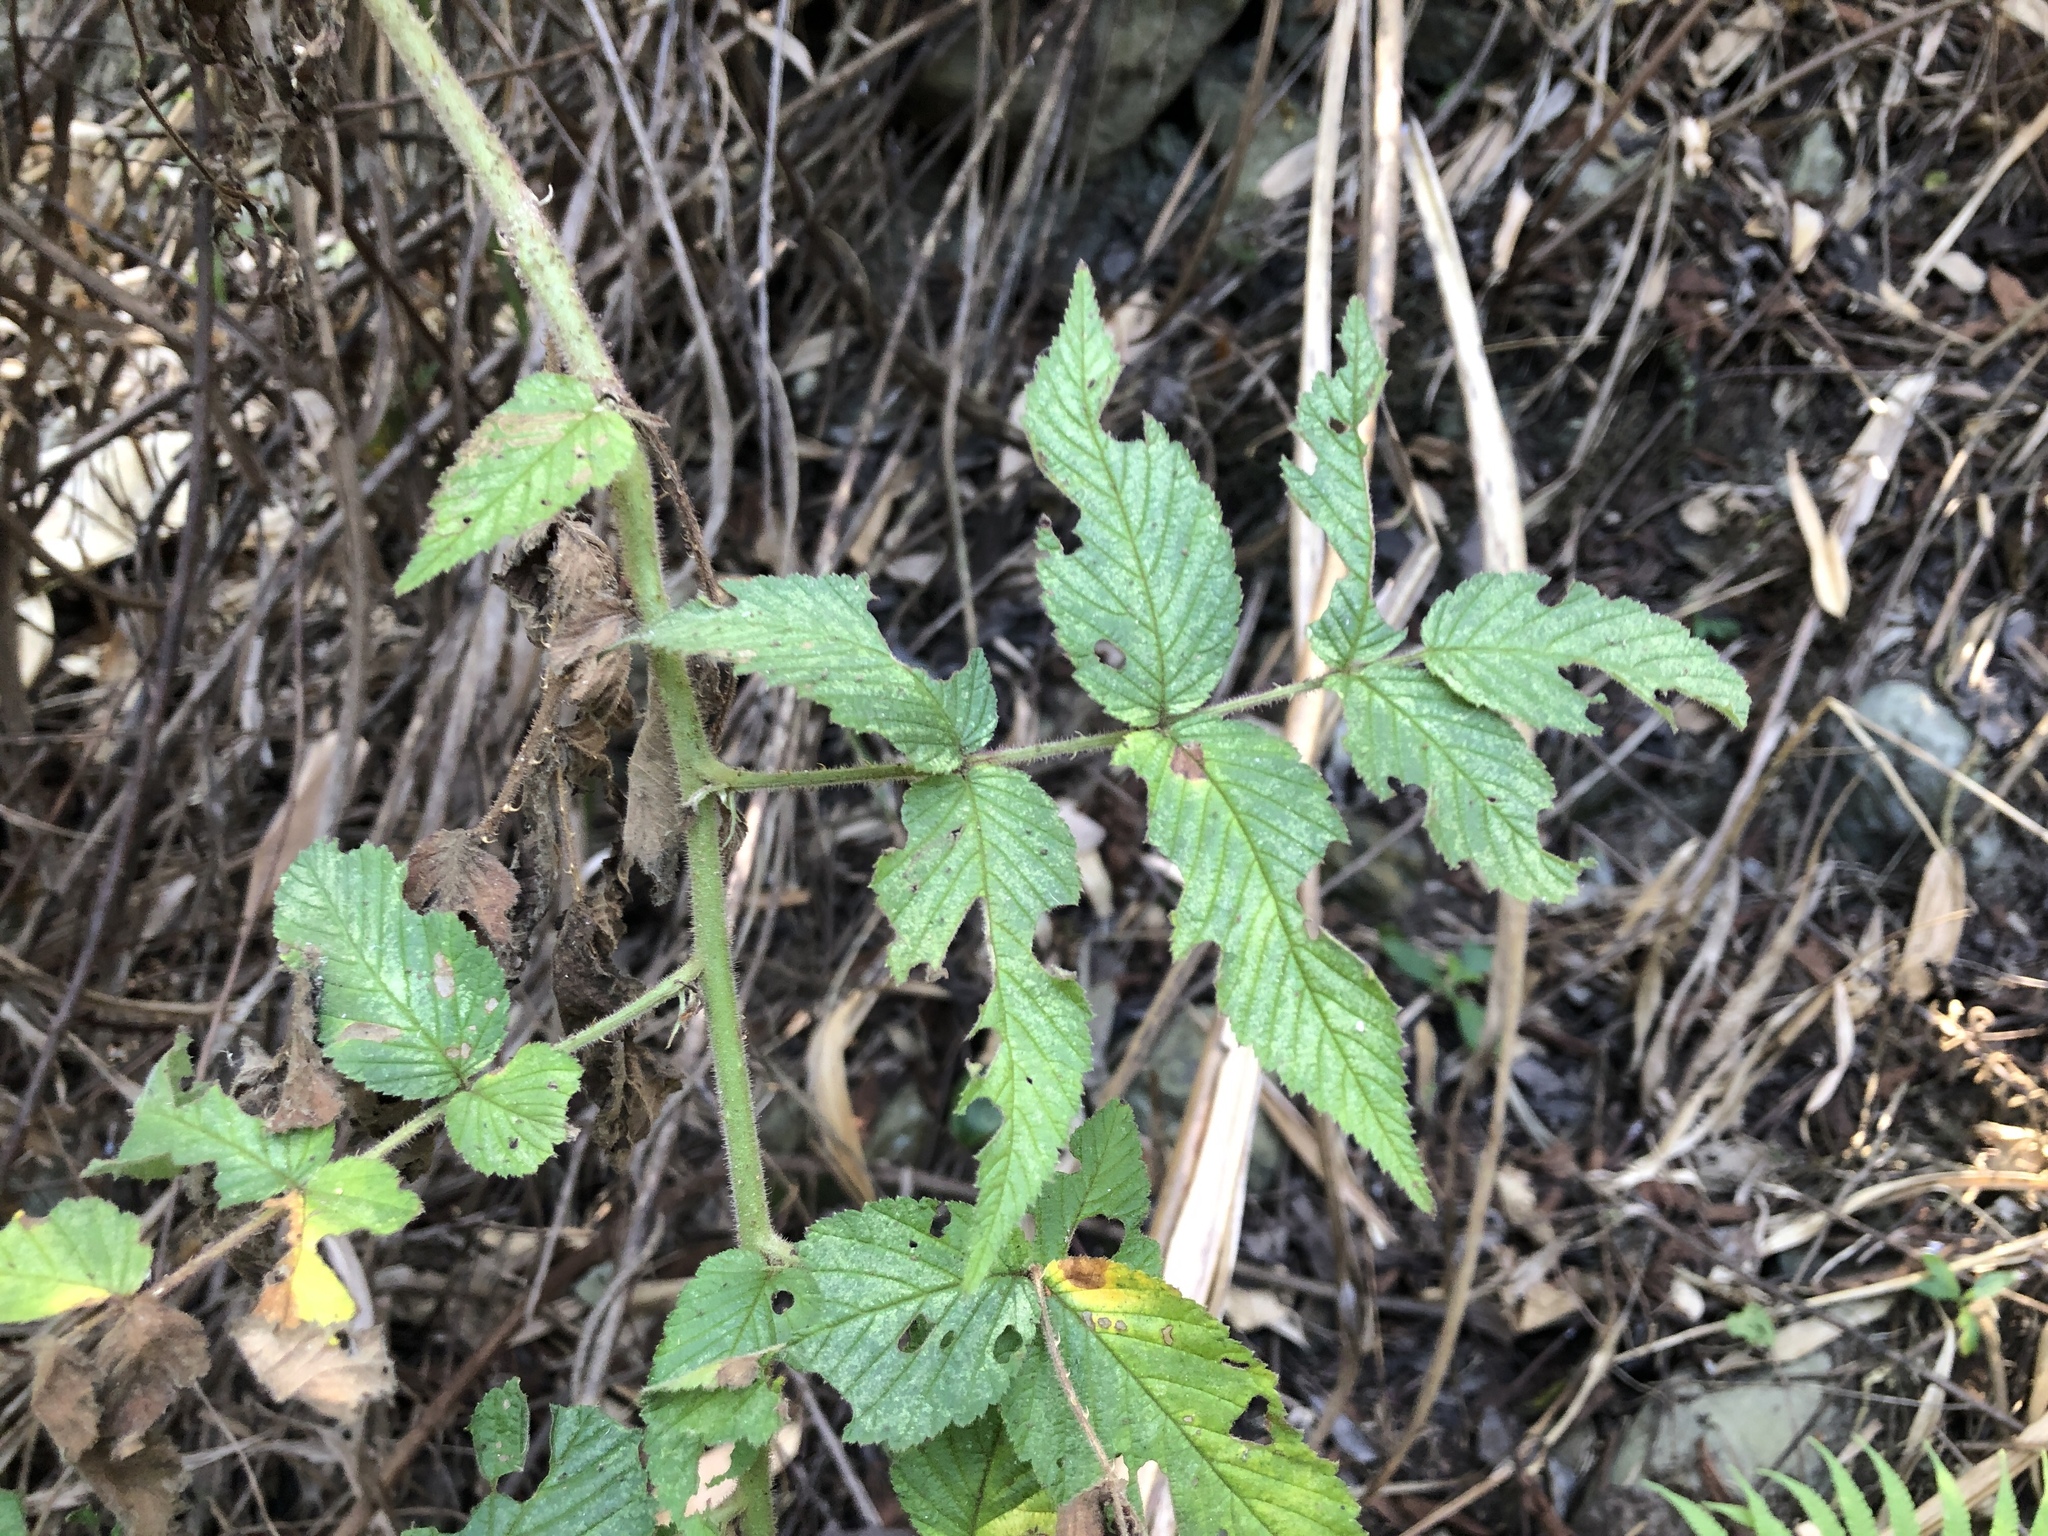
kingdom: Plantae
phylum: Tracheophyta
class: Magnoliopsida
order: Rosales
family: Rosaceae
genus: Rubus
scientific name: Rubus croceacanthus
